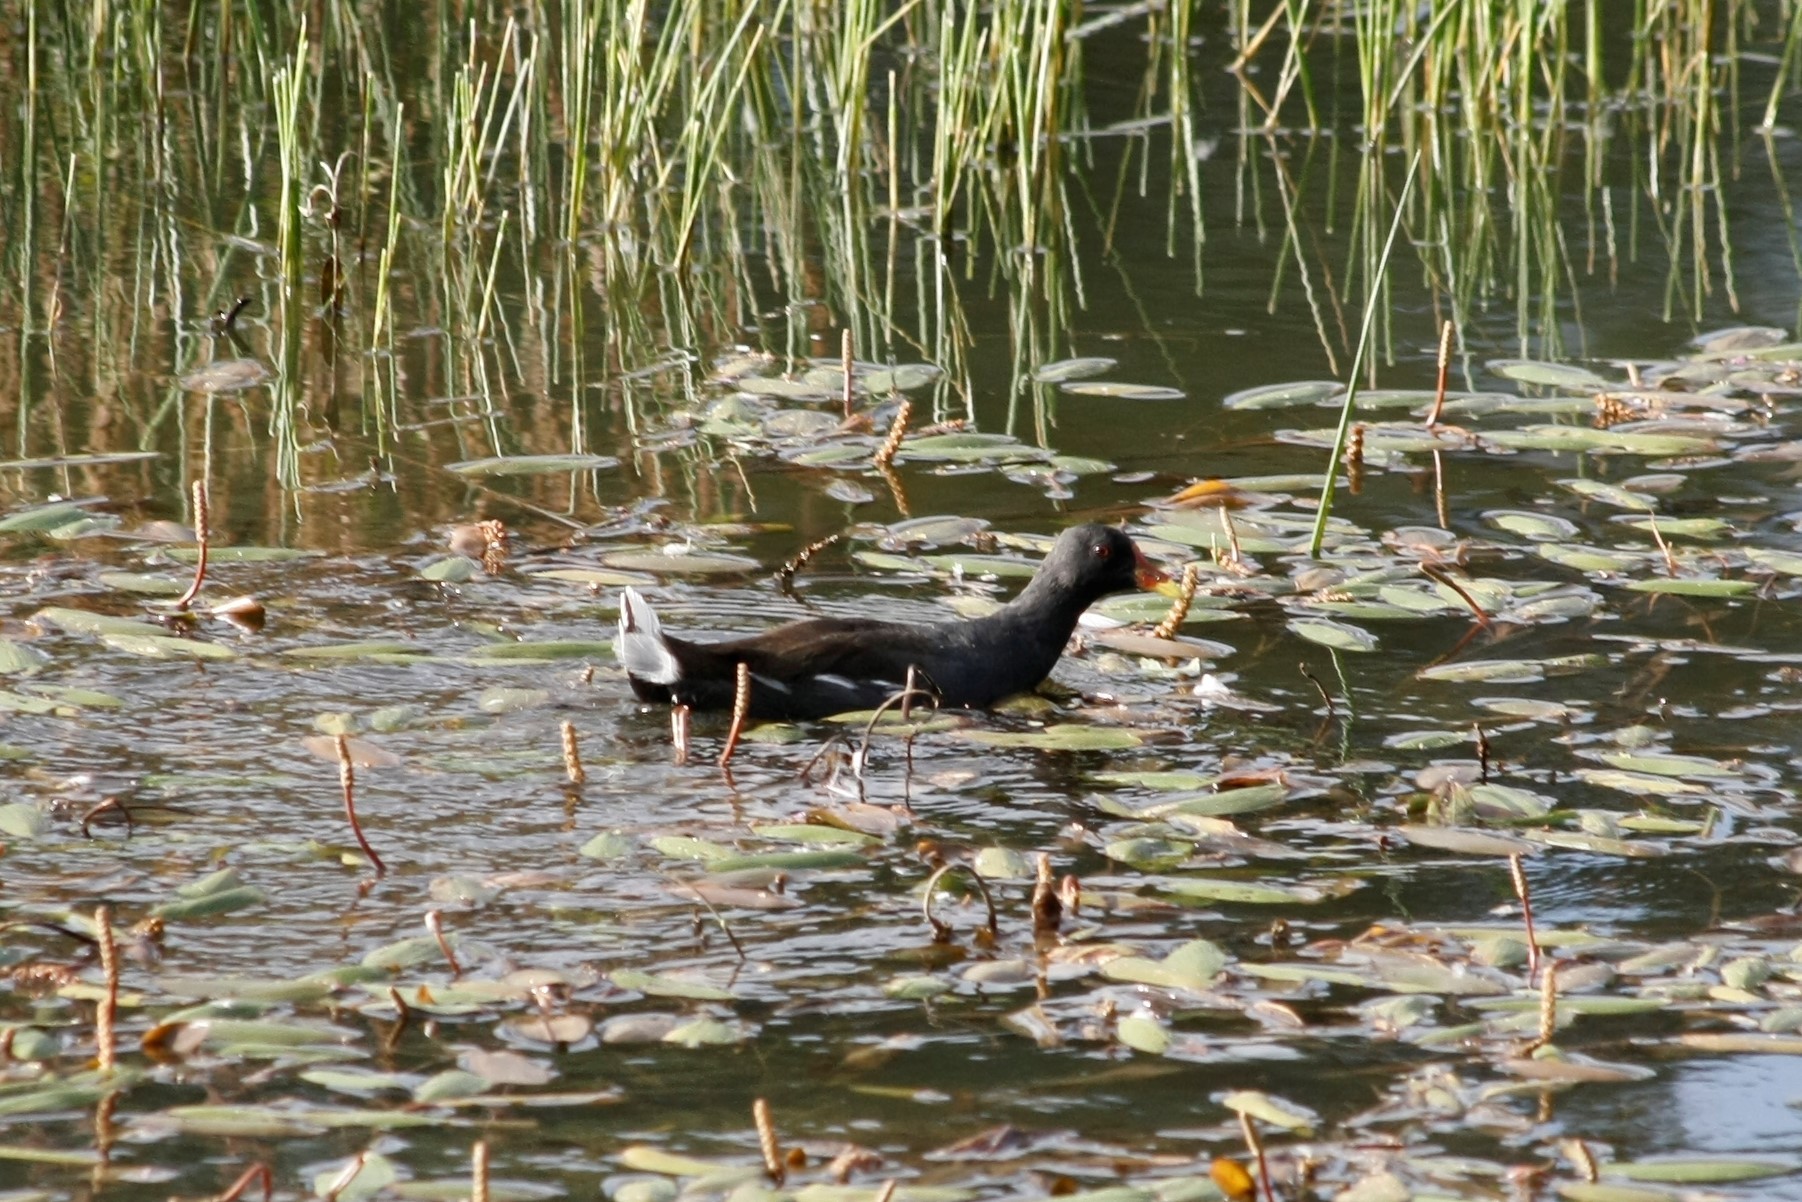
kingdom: Animalia
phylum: Chordata
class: Aves
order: Gruiformes
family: Rallidae
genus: Gallinula
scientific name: Gallinula chloropus
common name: Common moorhen
